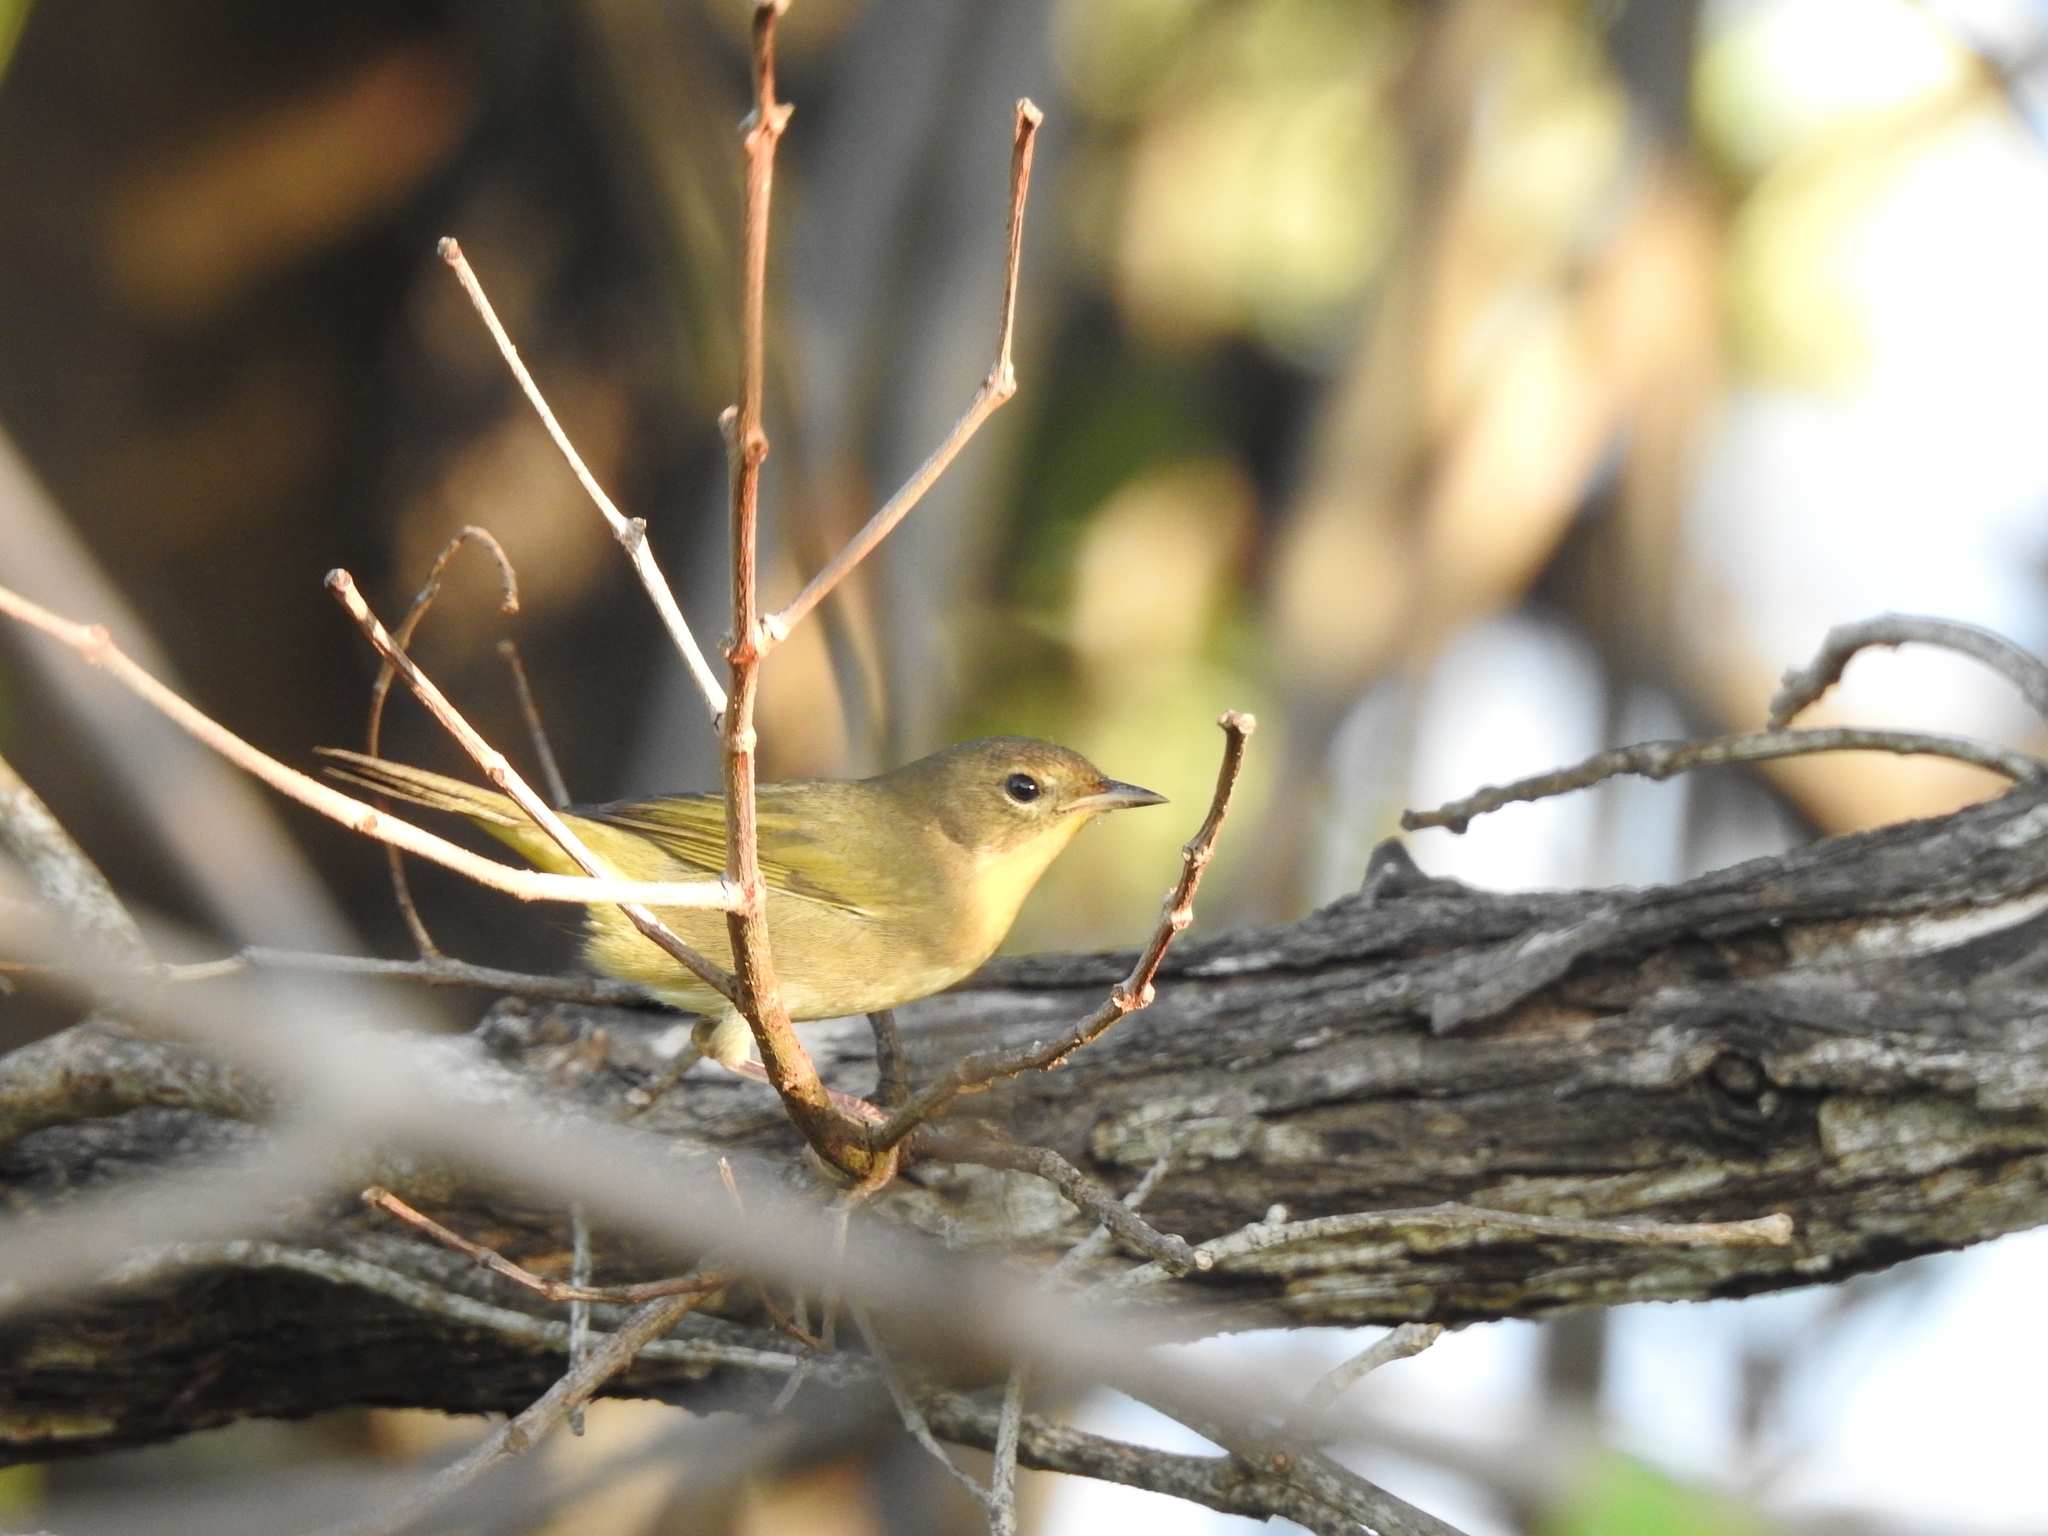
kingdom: Animalia
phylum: Chordata
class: Aves
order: Passeriformes
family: Parulidae
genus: Geothlypis
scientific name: Geothlypis trichas
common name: Common yellowthroat
